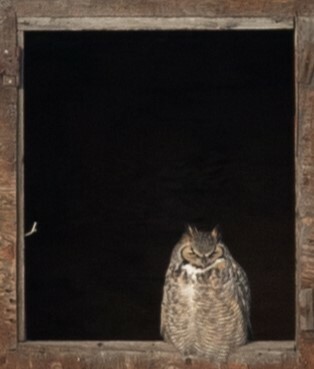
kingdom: Animalia
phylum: Chordata
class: Aves
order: Strigiformes
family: Strigidae
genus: Bubo
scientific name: Bubo virginianus
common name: Great horned owl
